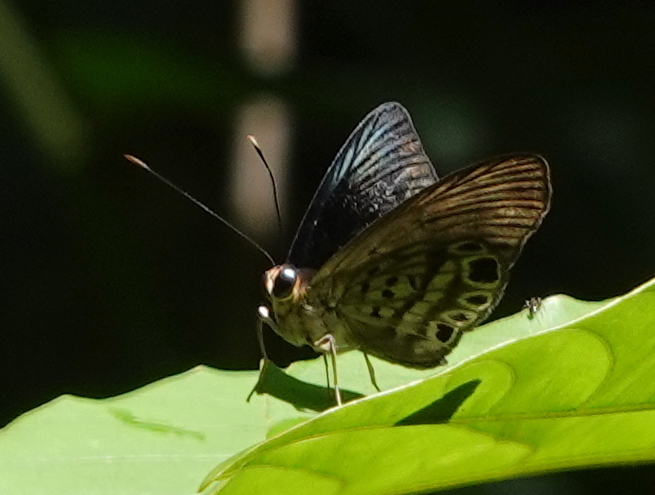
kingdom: Animalia
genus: Alesa
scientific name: Alesa amesis
